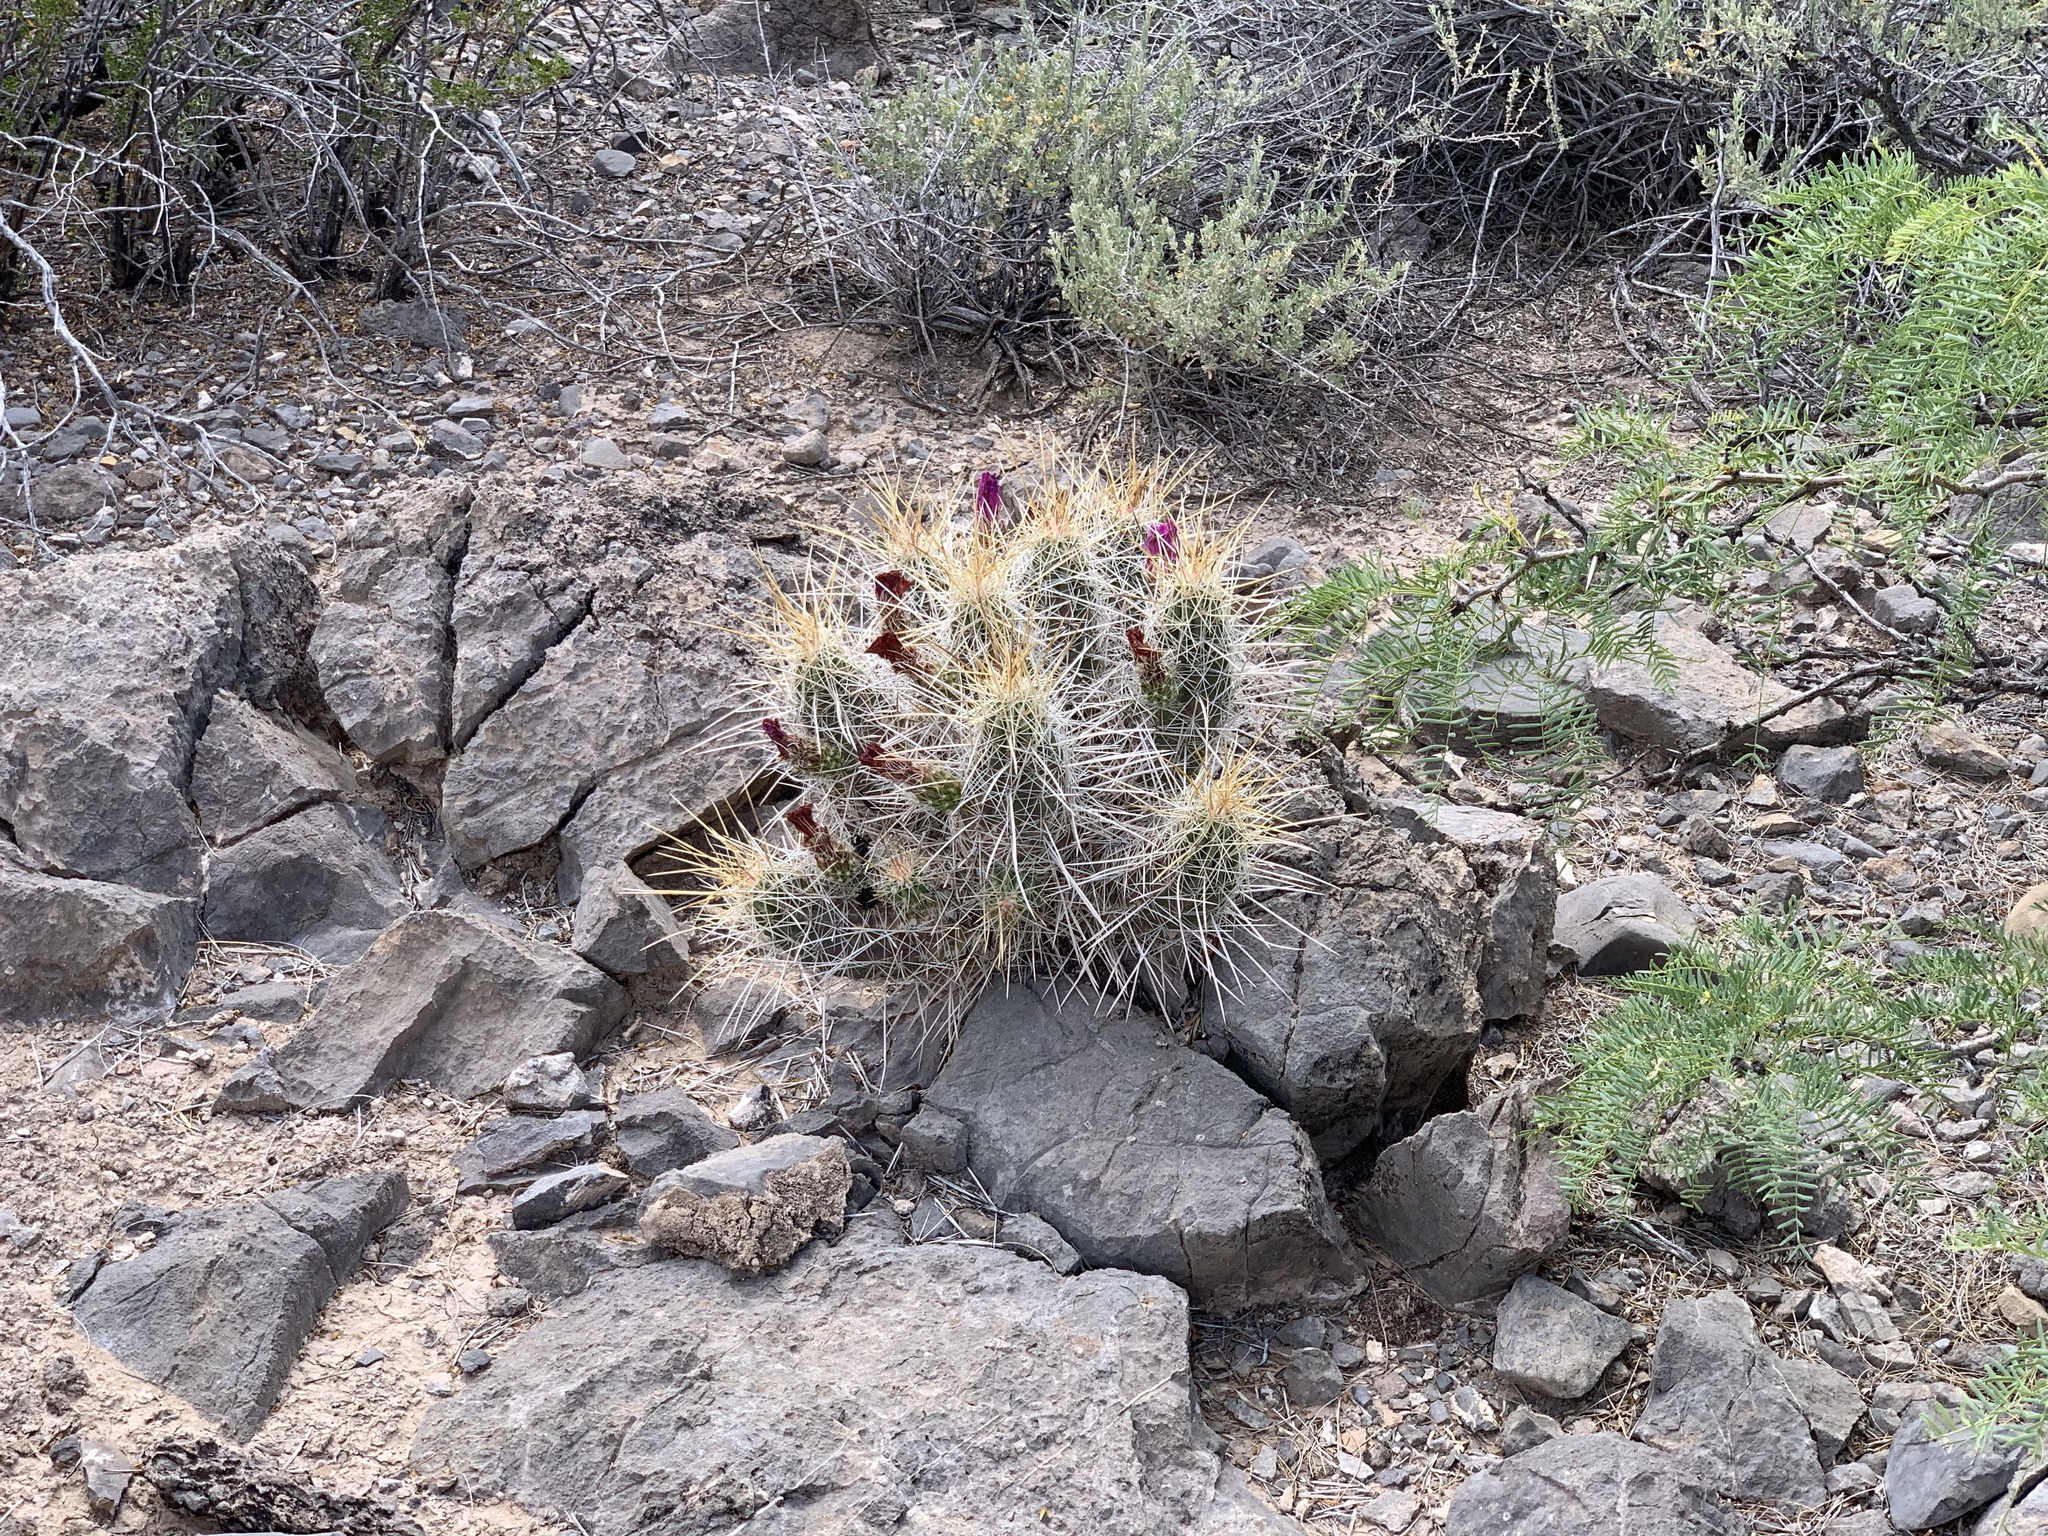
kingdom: Plantae
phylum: Tracheophyta
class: Magnoliopsida
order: Caryophyllales
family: Cactaceae
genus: Echinocereus
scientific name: Echinocereus stramineus
